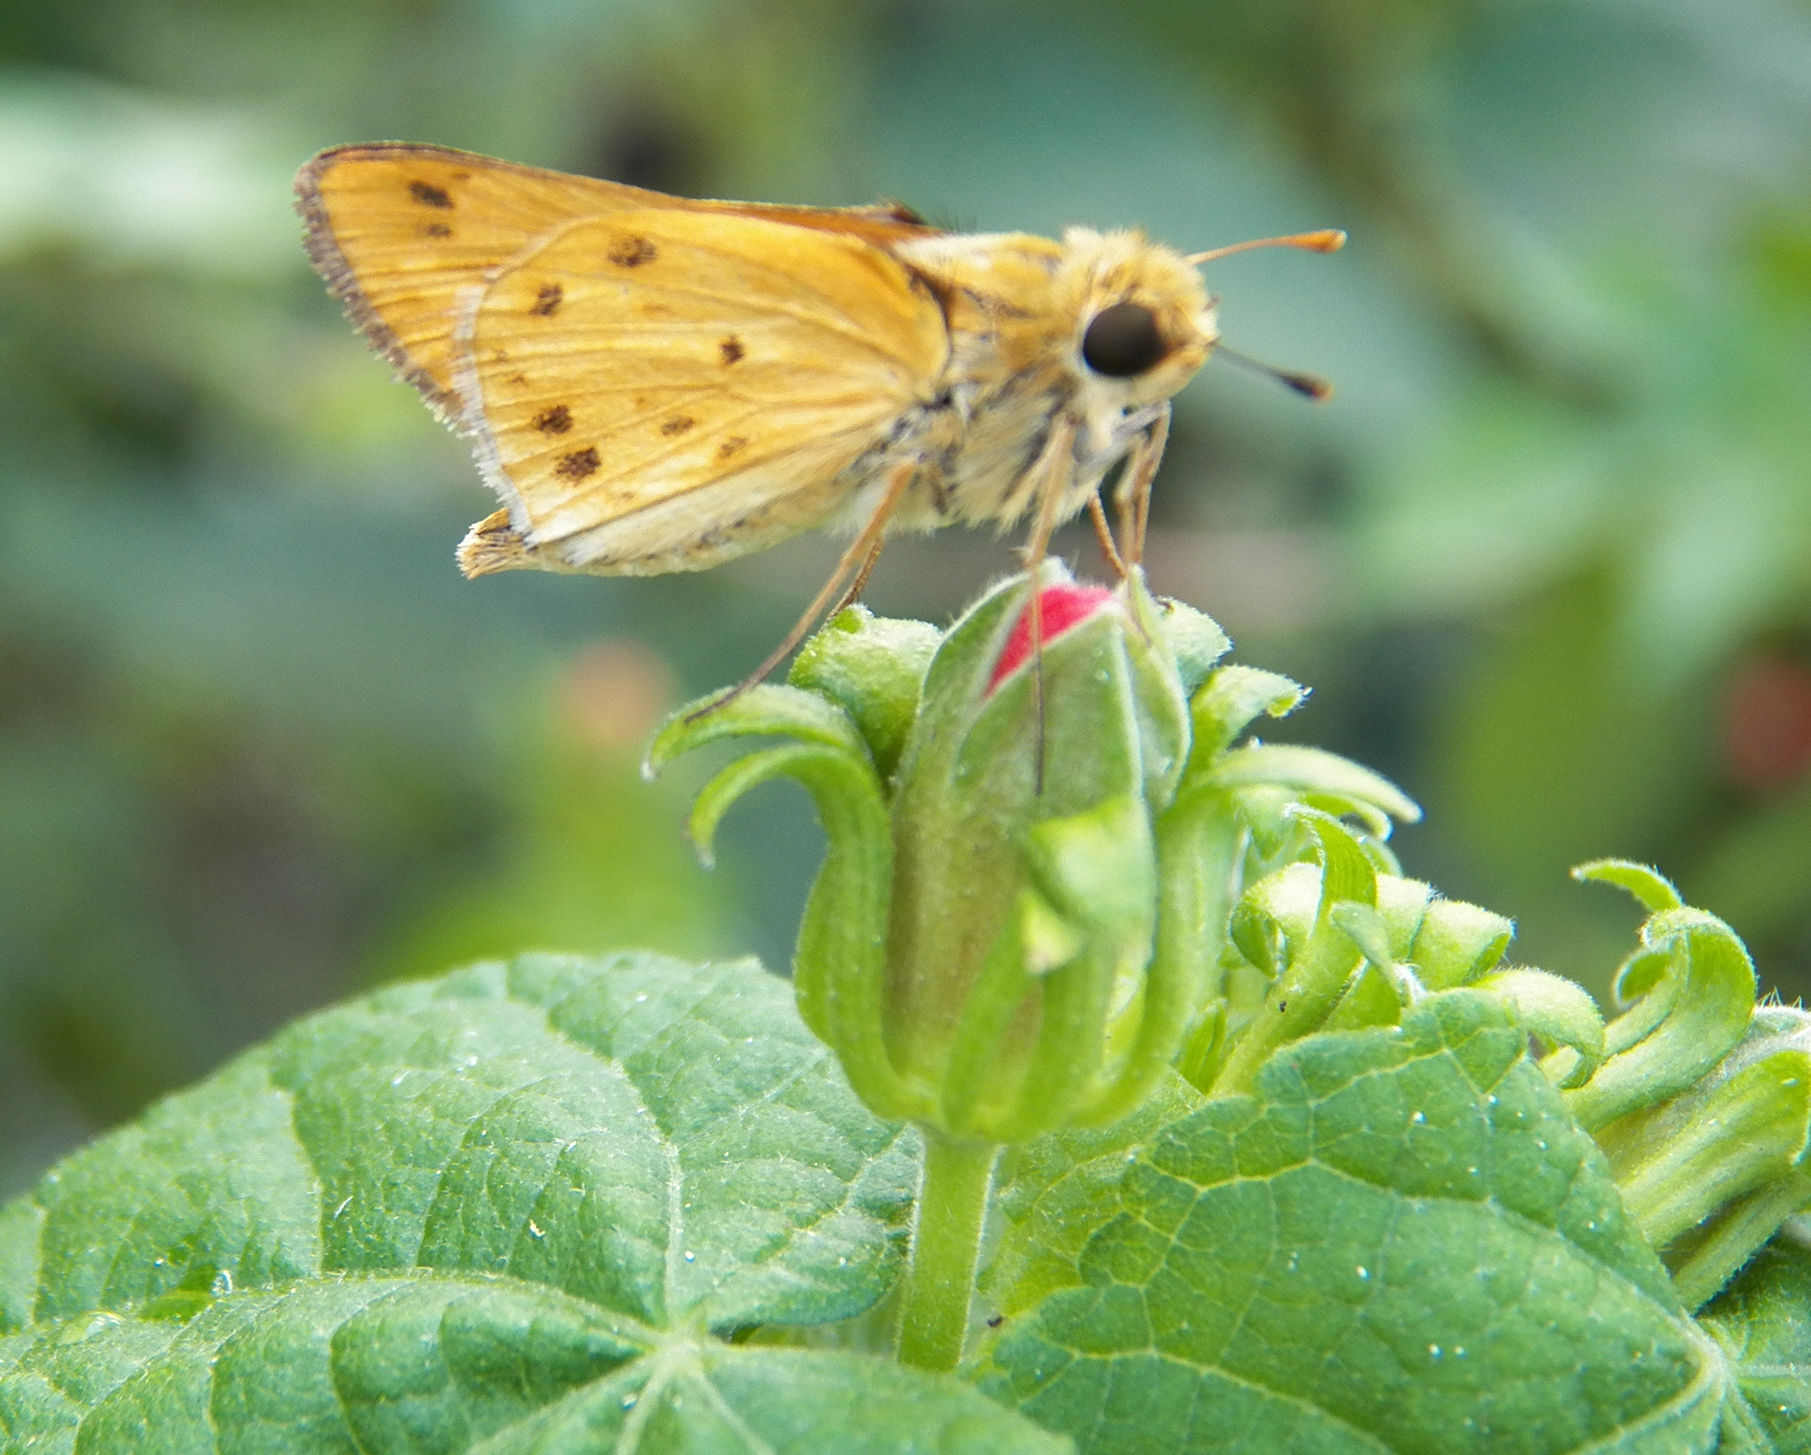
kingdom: Animalia
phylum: Arthropoda
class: Insecta
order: Lepidoptera
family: Hesperiidae
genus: Hylephila
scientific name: Hylephila phyleus
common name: Fiery skipper
